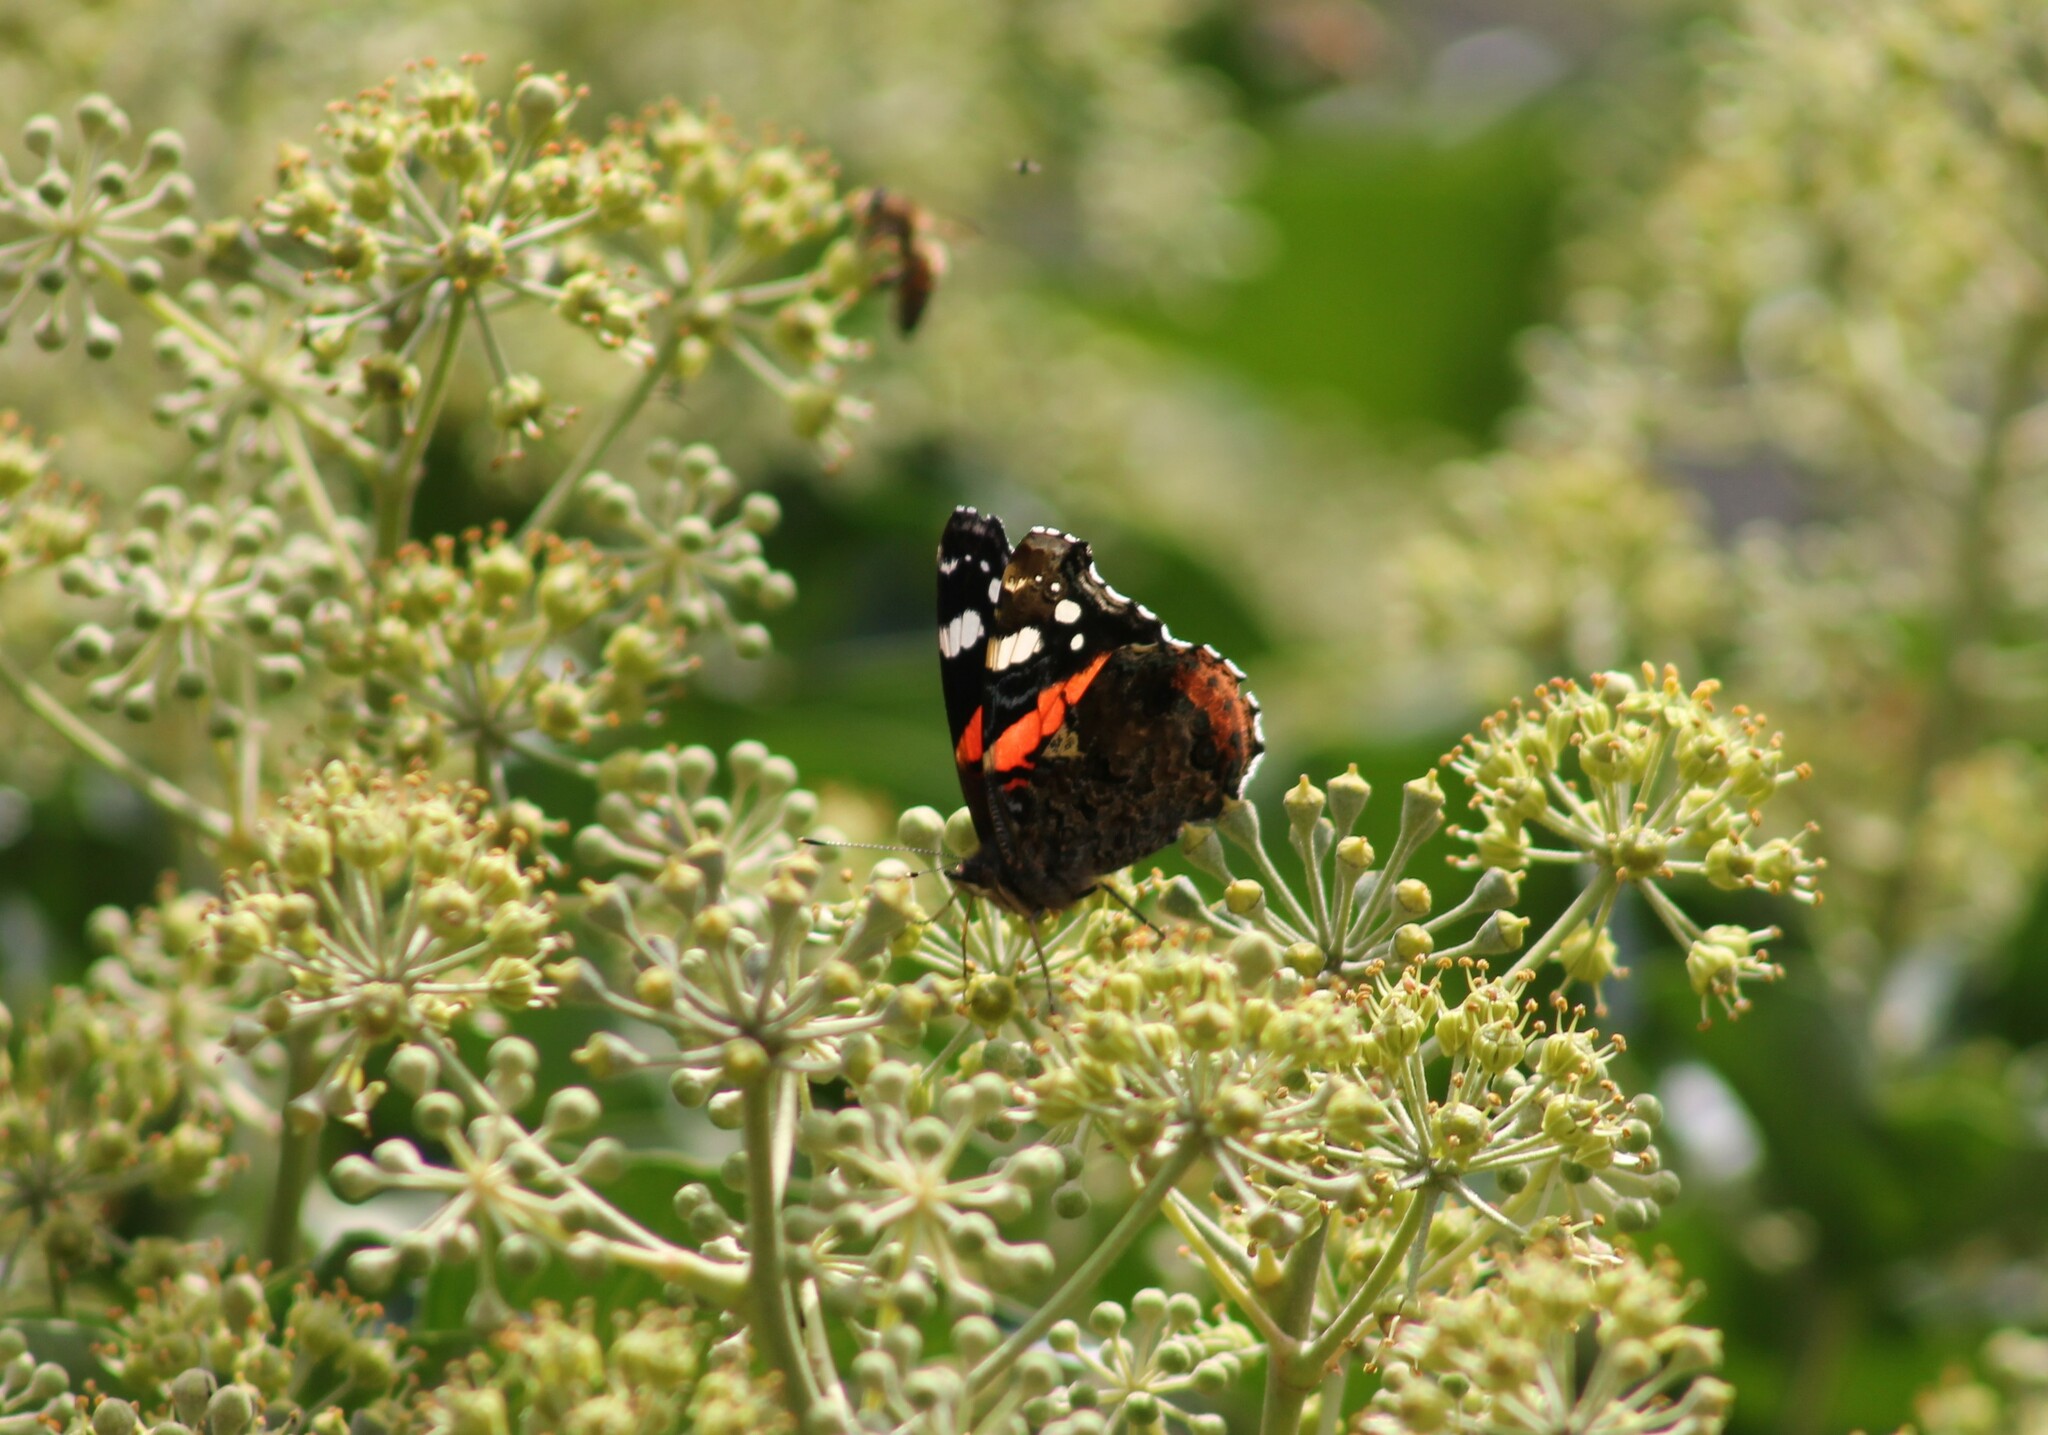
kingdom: Animalia
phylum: Arthropoda
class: Insecta
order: Lepidoptera
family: Nymphalidae
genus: Vanessa
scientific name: Vanessa atalanta
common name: Red admiral
